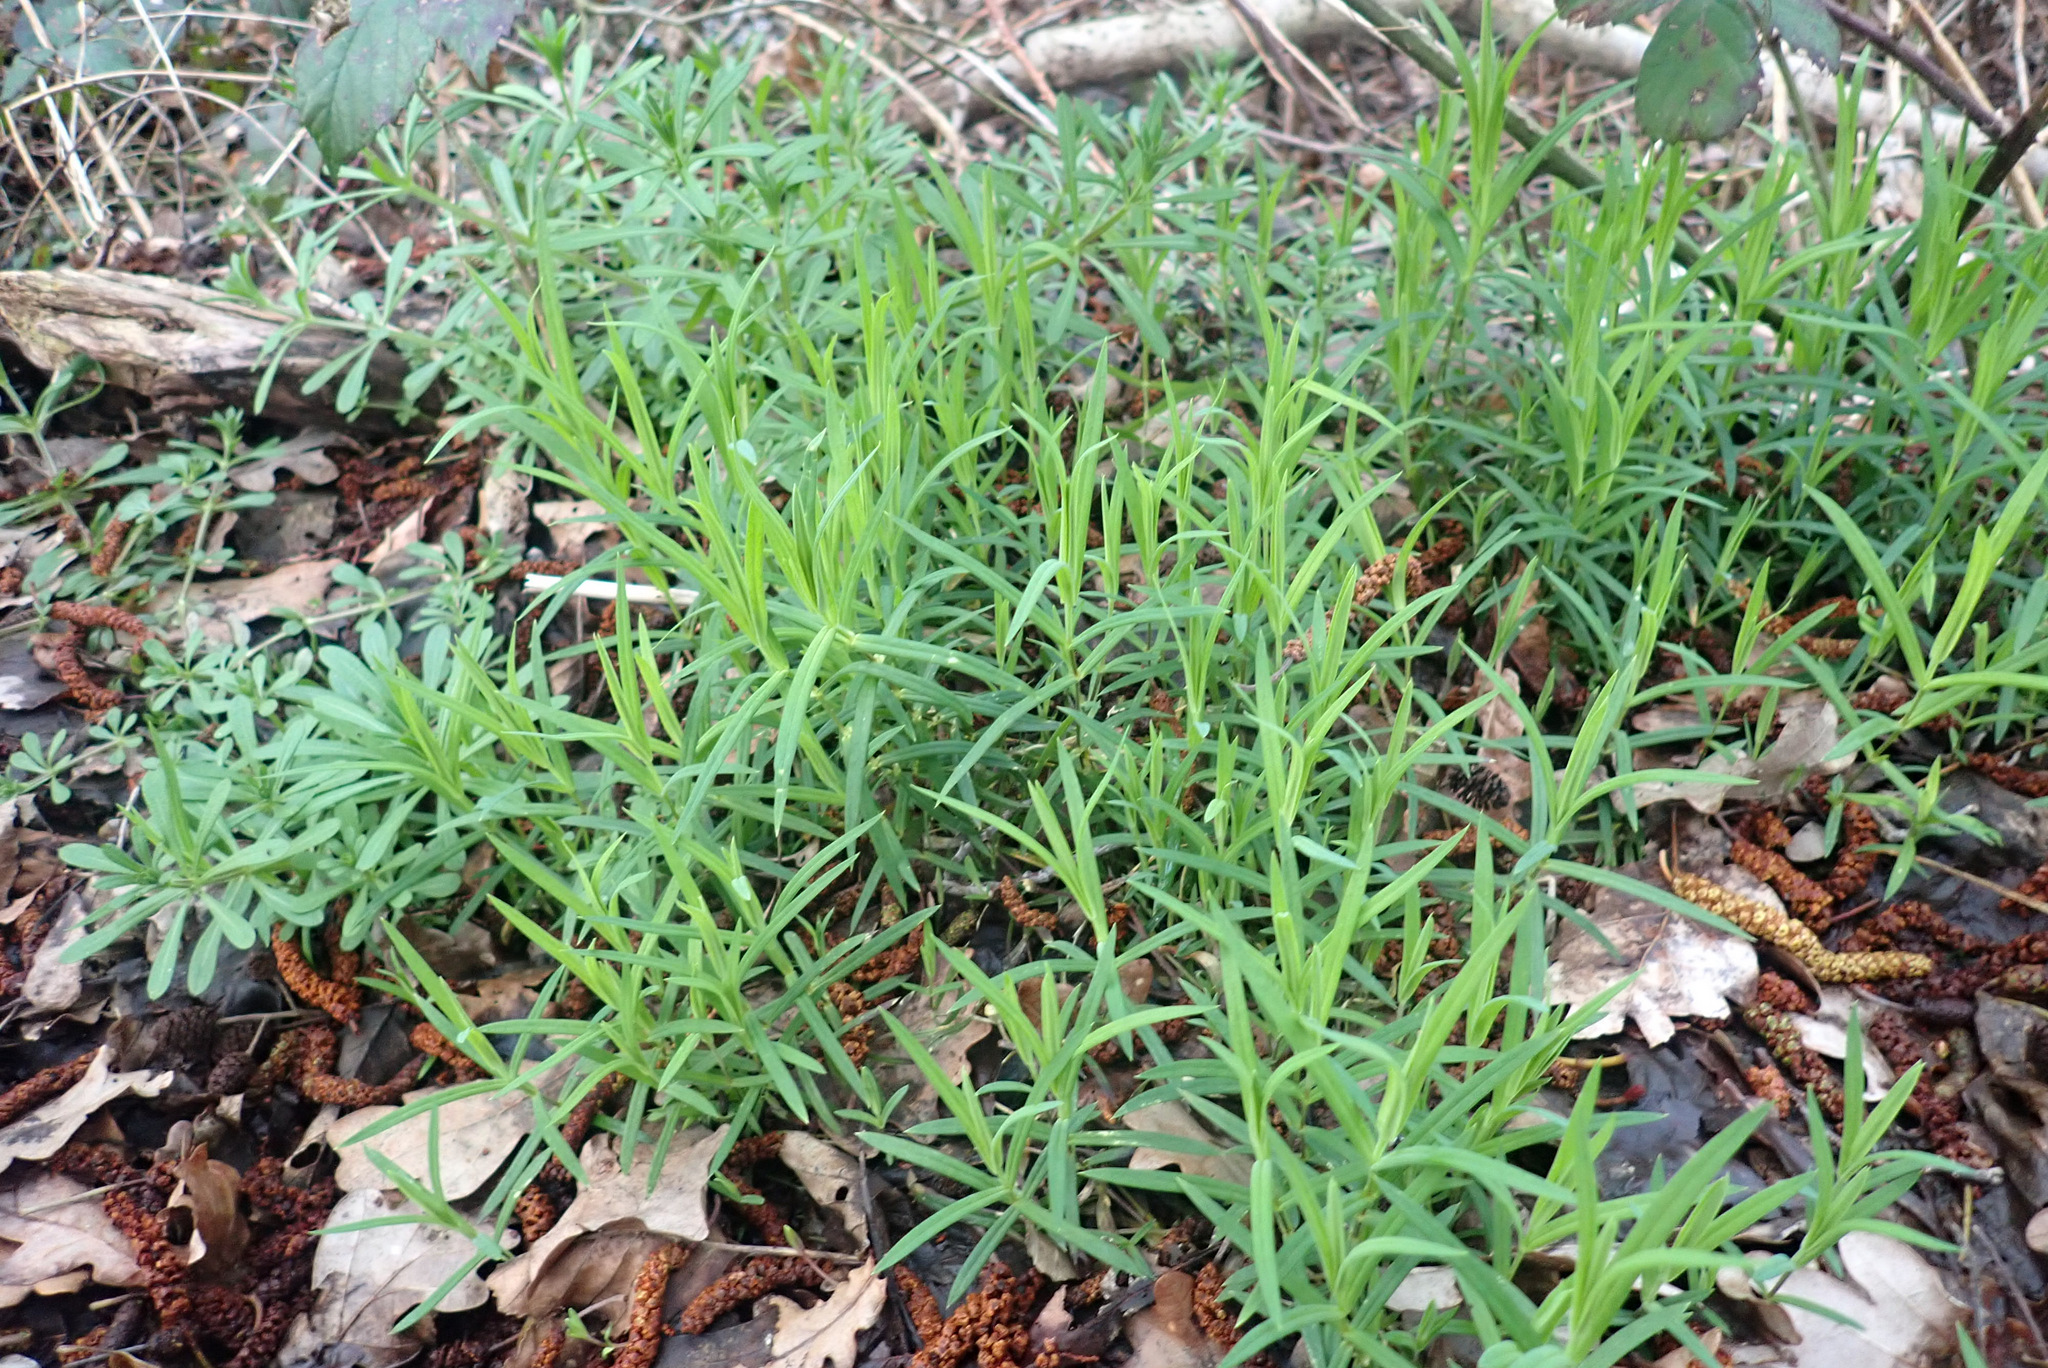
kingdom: Plantae
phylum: Tracheophyta
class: Magnoliopsida
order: Caryophyllales
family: Caryophyllaceae
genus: Rabelera
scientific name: Rabelera holostea
